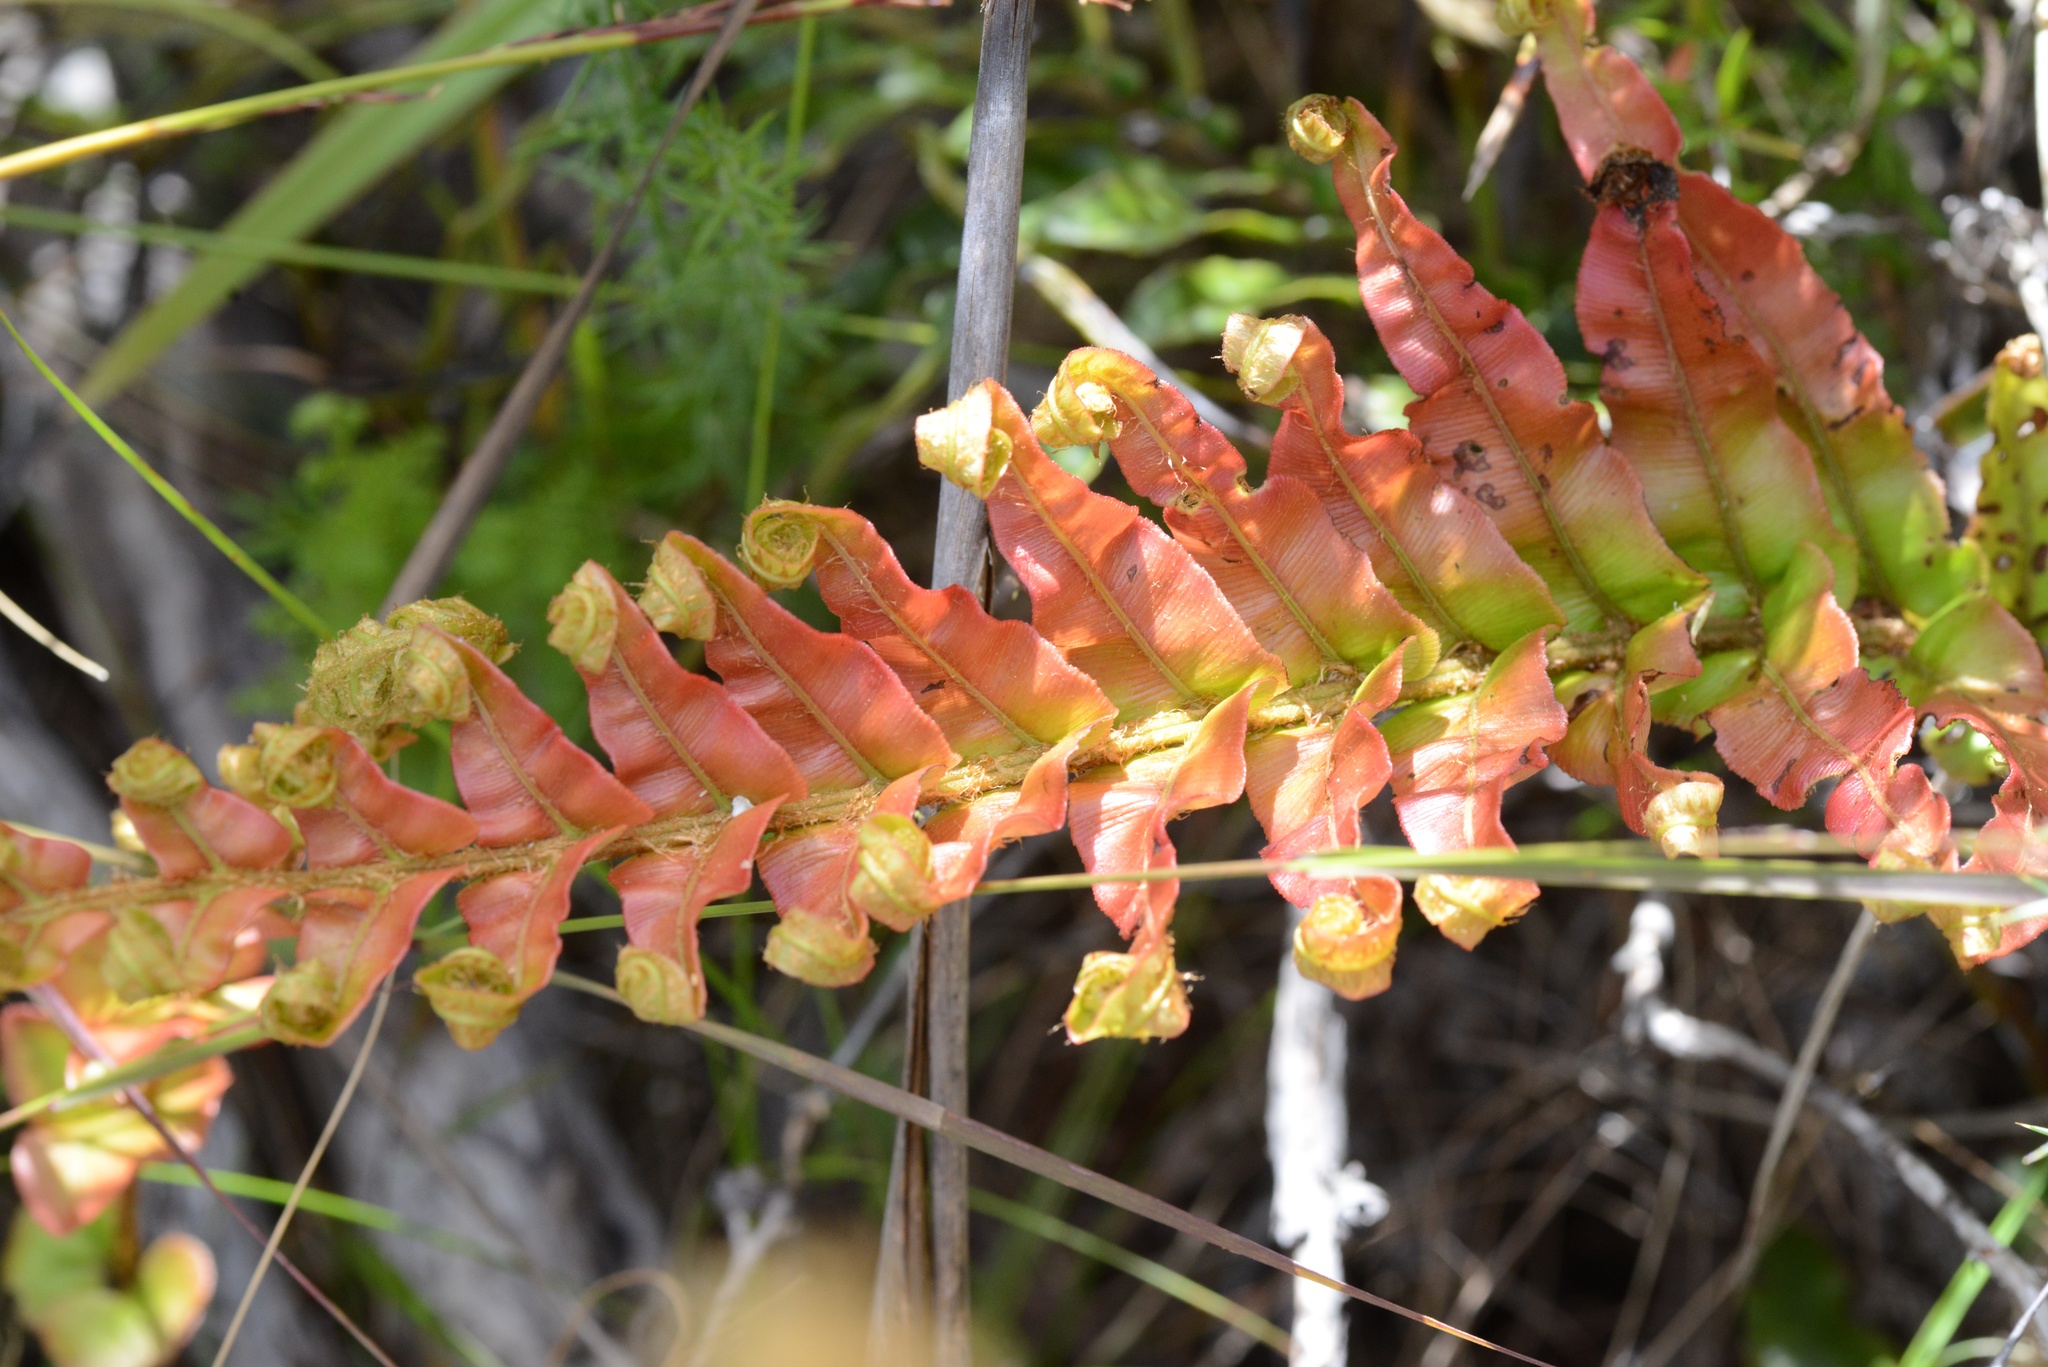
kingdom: Plantae
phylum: Tracheophyta
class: Polypodiopsida
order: Polypodiales
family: Blechnaceae
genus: Parablechnum
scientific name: Parablechnum novae-zelandiae
